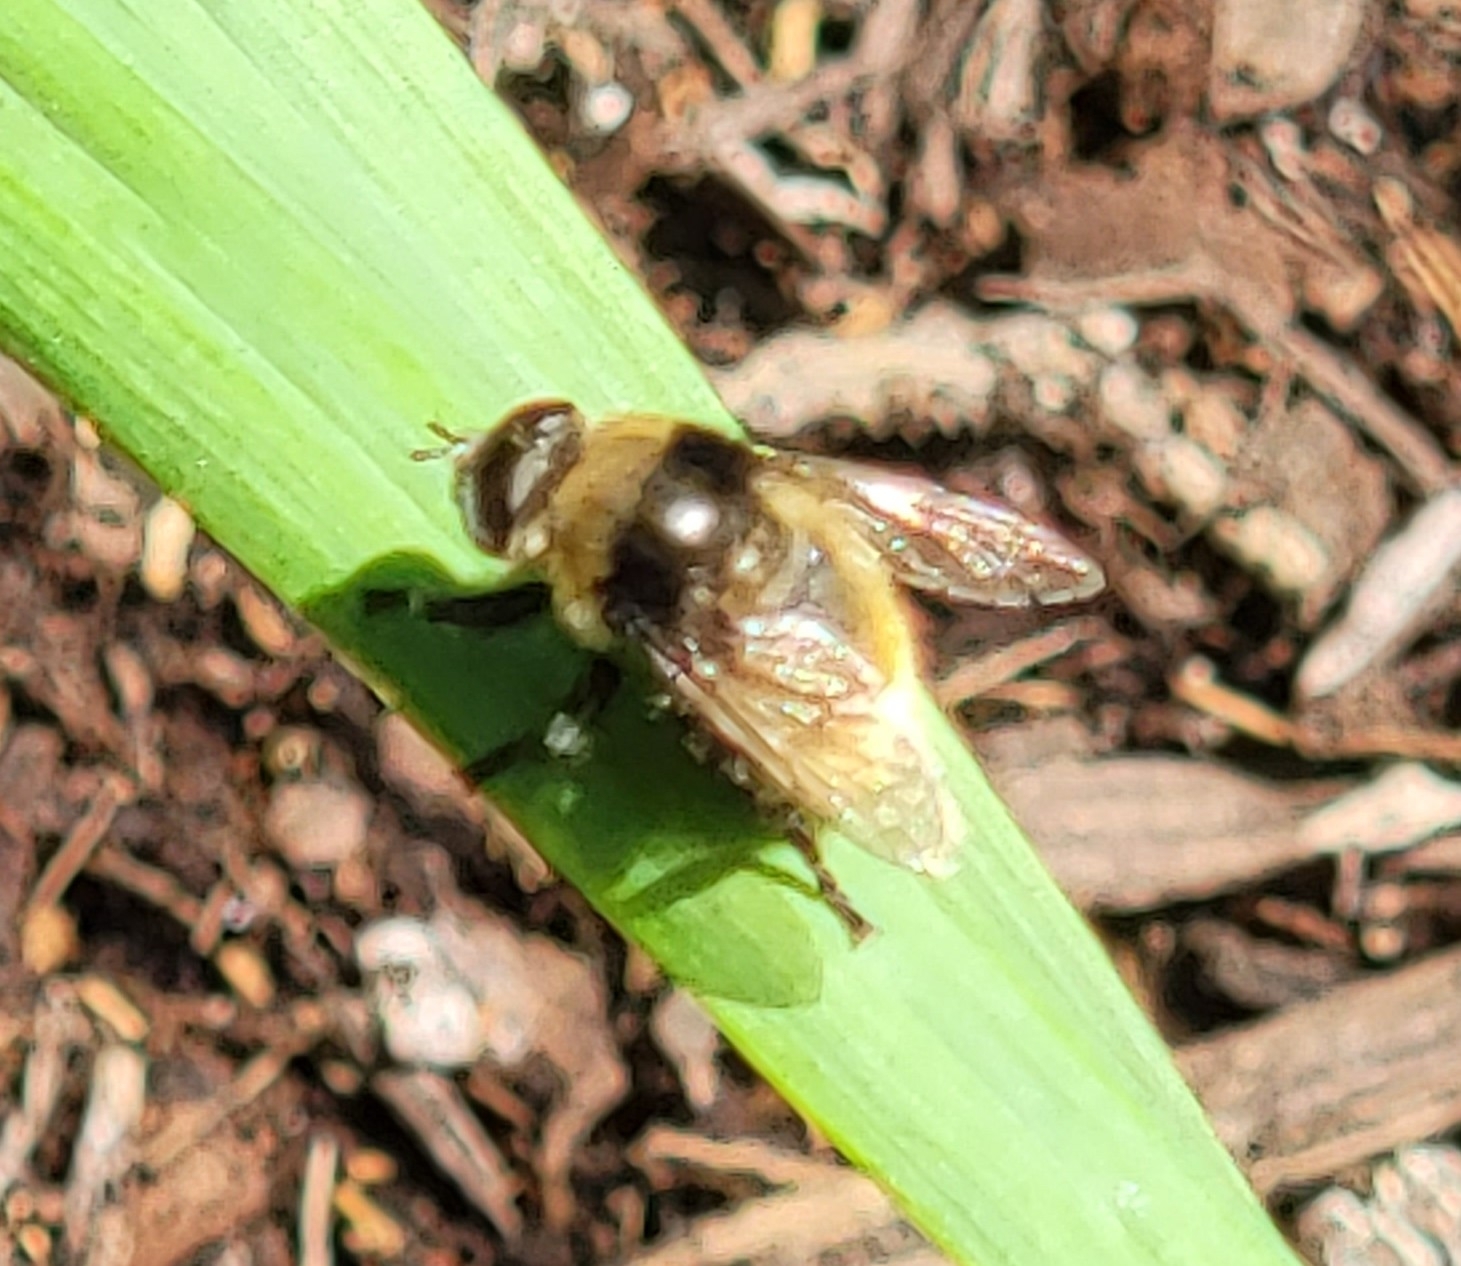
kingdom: Animalia
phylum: Arthropoda
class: Insecta
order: Diptera
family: Syrphidae
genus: Merodon
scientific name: Merodon equestris
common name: Greater bulb-fly
